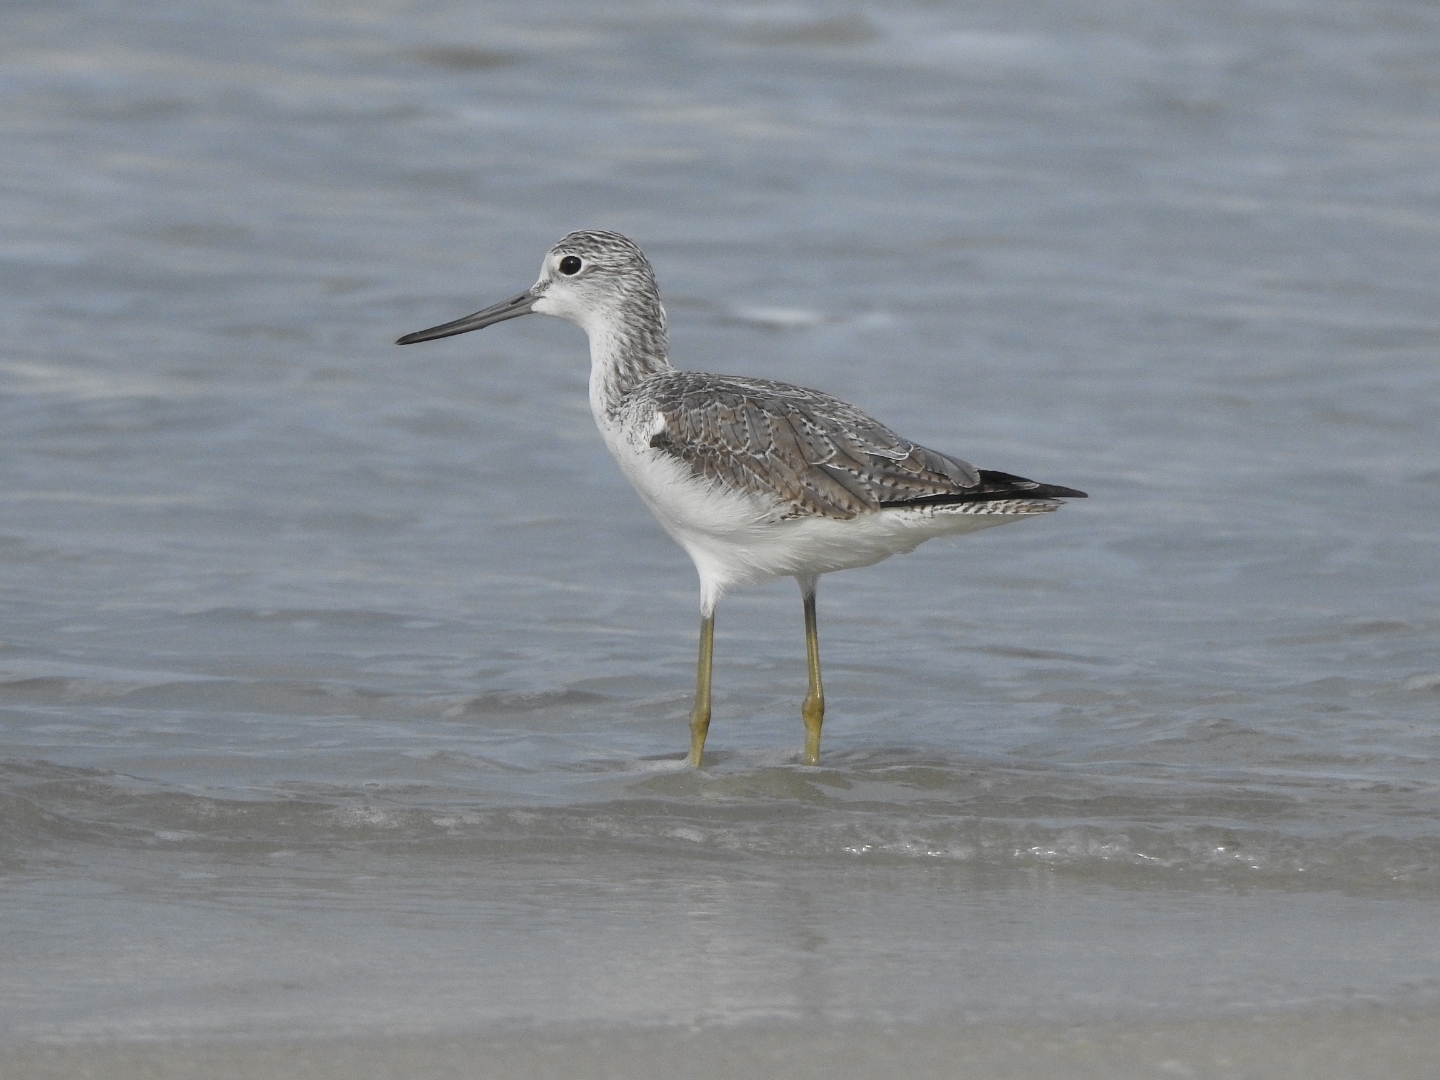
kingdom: Animalia
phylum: Chordata
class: Aves
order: Charadriiformes
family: Scolopacidae
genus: Tringa
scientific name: Tringa nebularia
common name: Common greenshank
